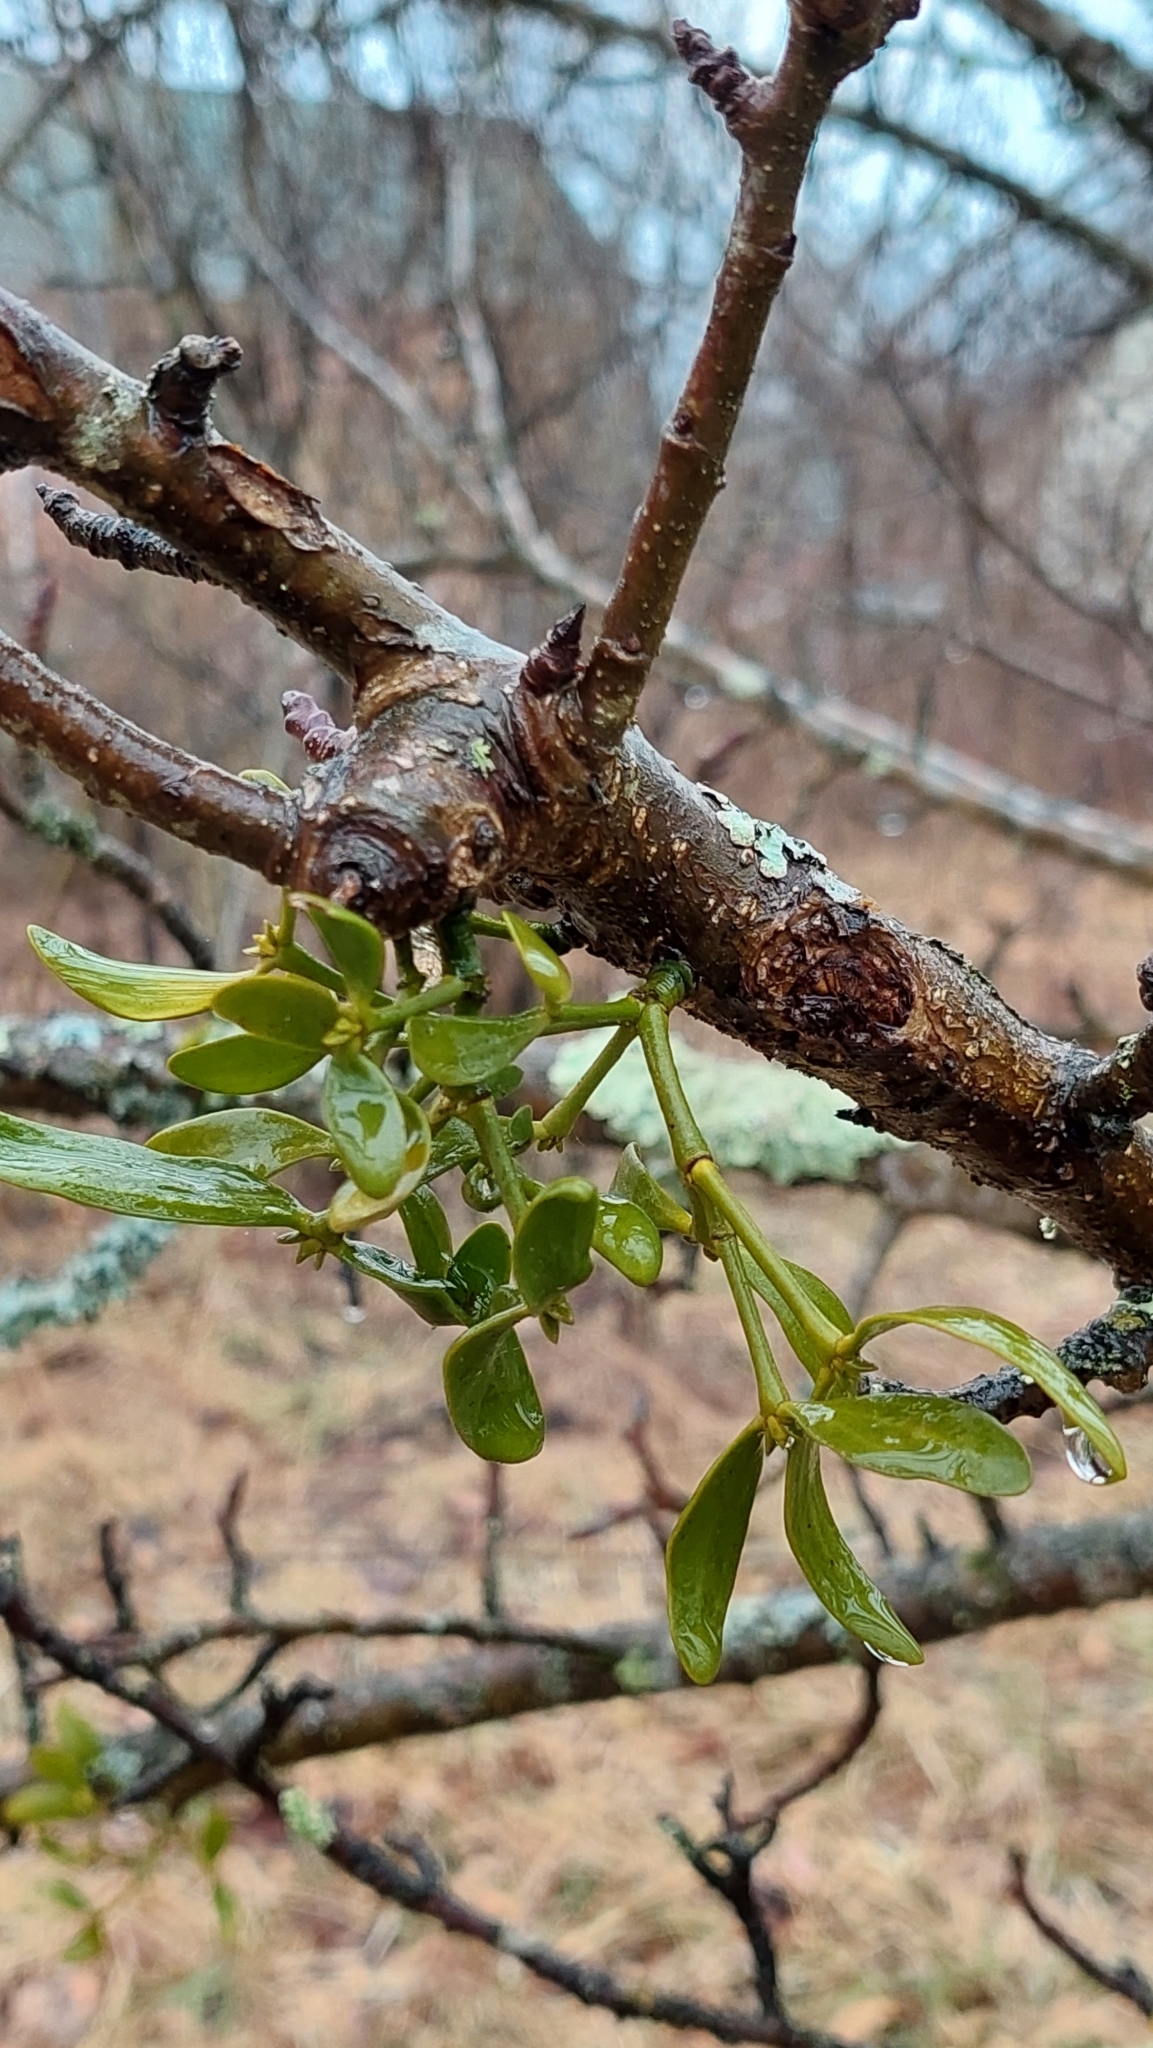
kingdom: Plantae
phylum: Tracheophyta
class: Magnoliopsida
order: Santalales
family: Viscaceae
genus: Viscum
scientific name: Viscum album
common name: Mistletoe
